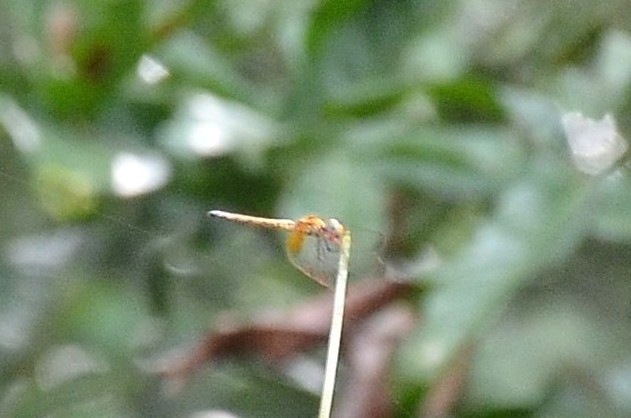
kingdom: Animalia
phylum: Arthropoda
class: Insecta
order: Odonata
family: Libellulidae
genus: Trithemis
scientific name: Trithemis aurora
